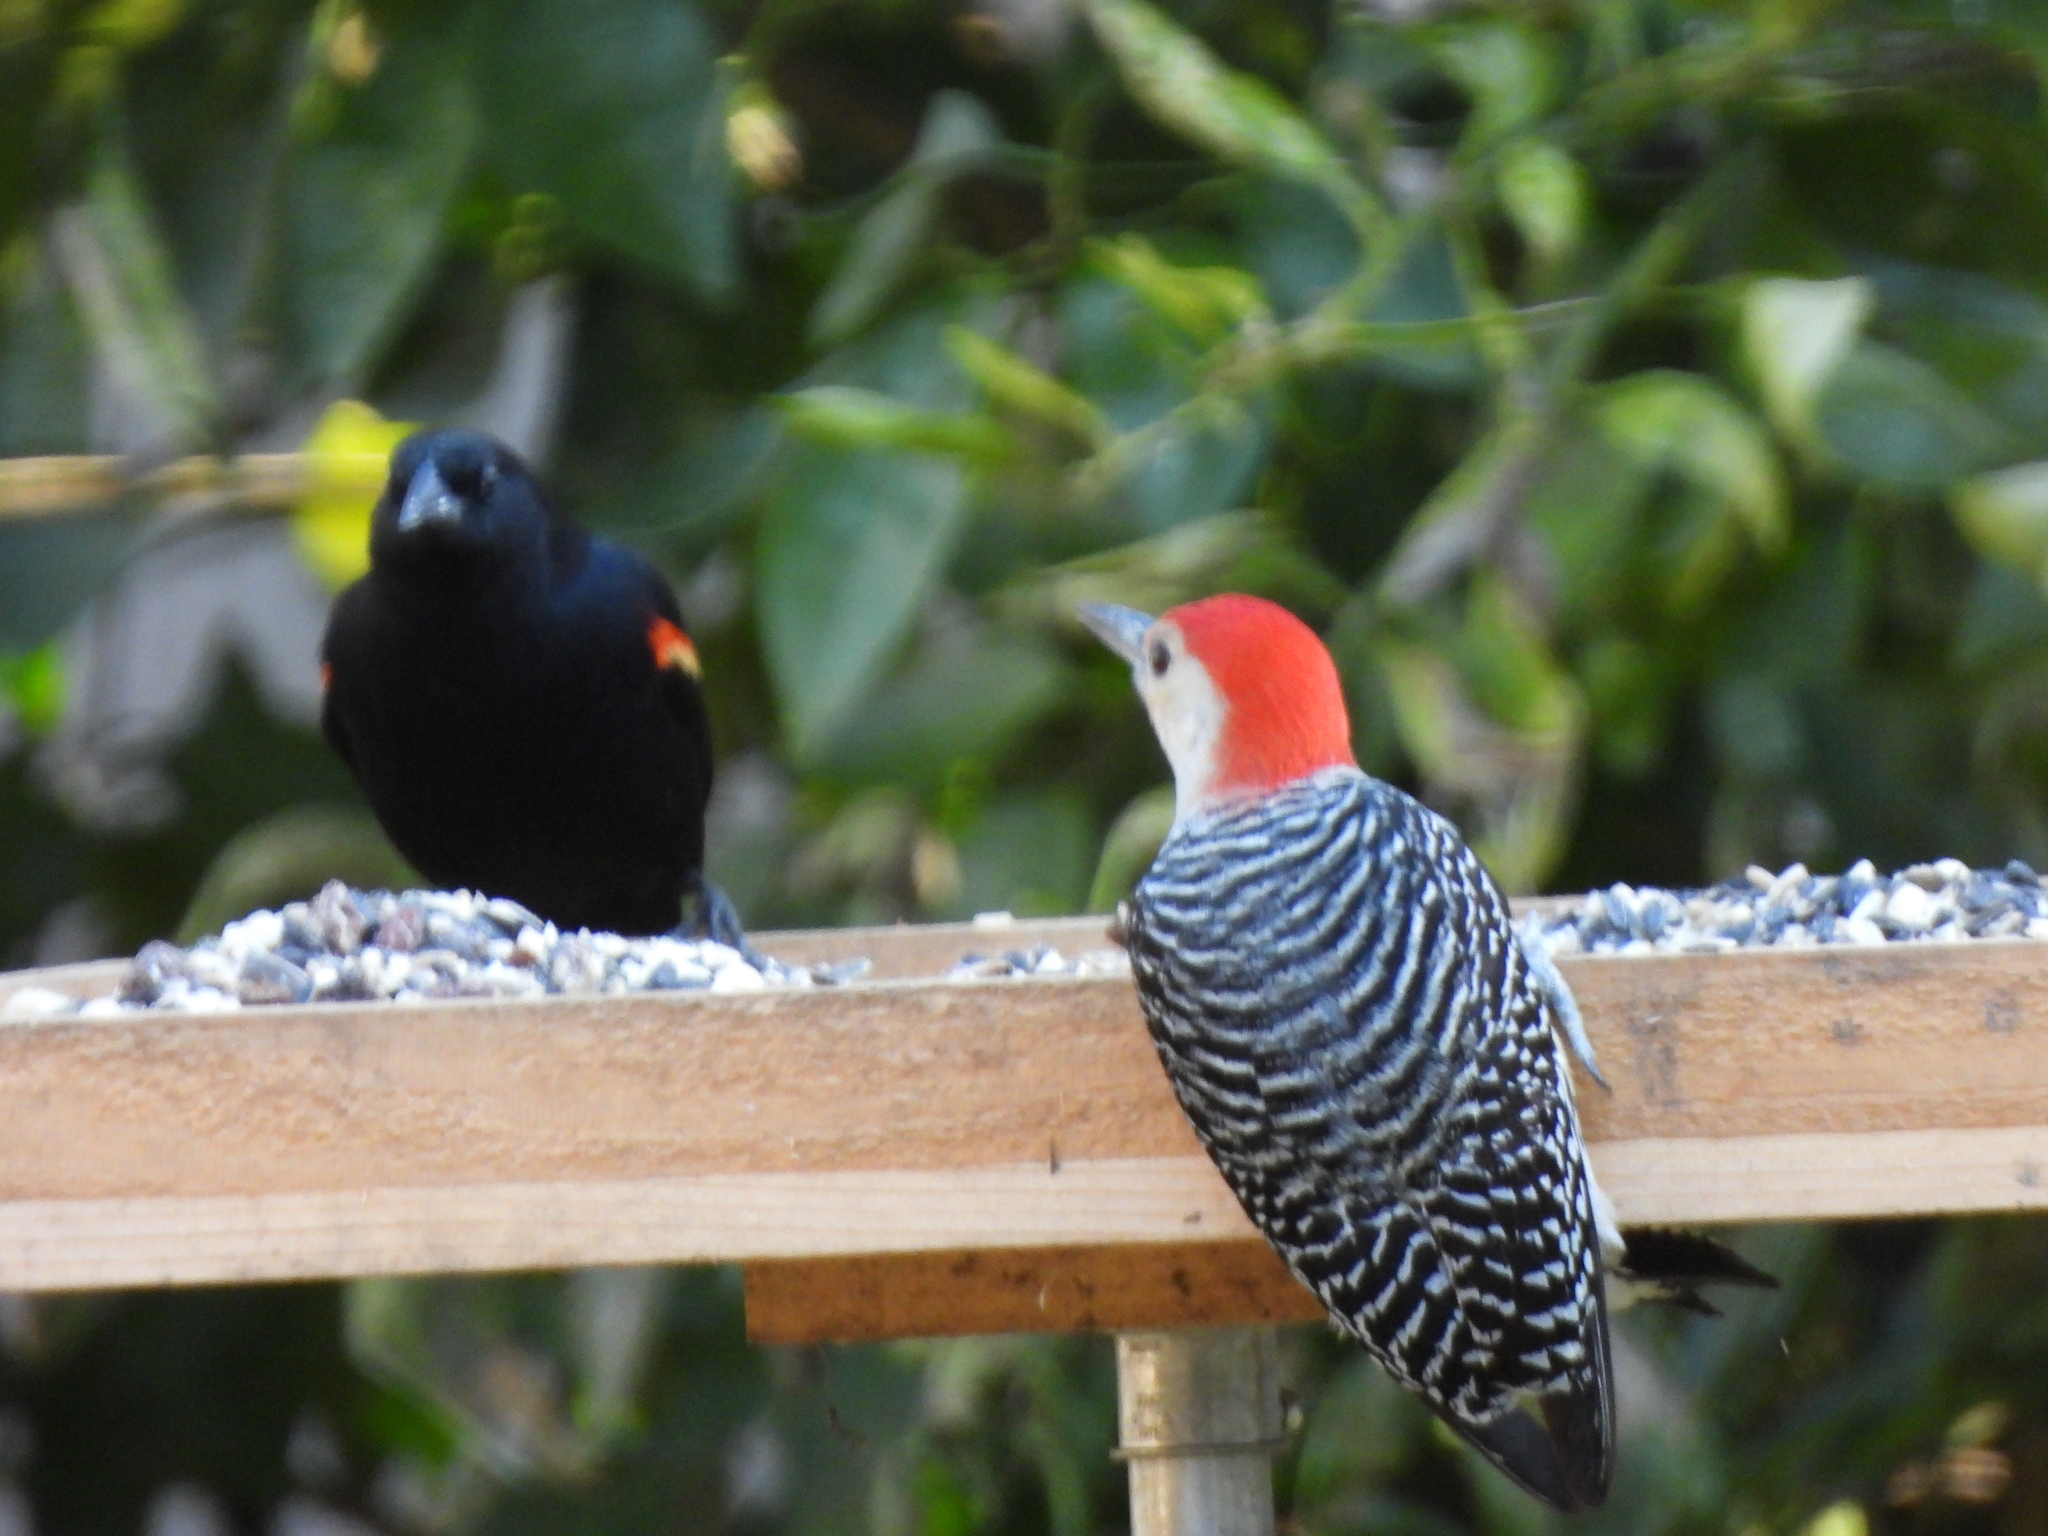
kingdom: Animalia
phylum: Chordata
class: Aves
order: Piciformes
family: Picidae
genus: Melanerpes
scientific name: Melanerpes carolinus
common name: Red-bellied woodpecker
